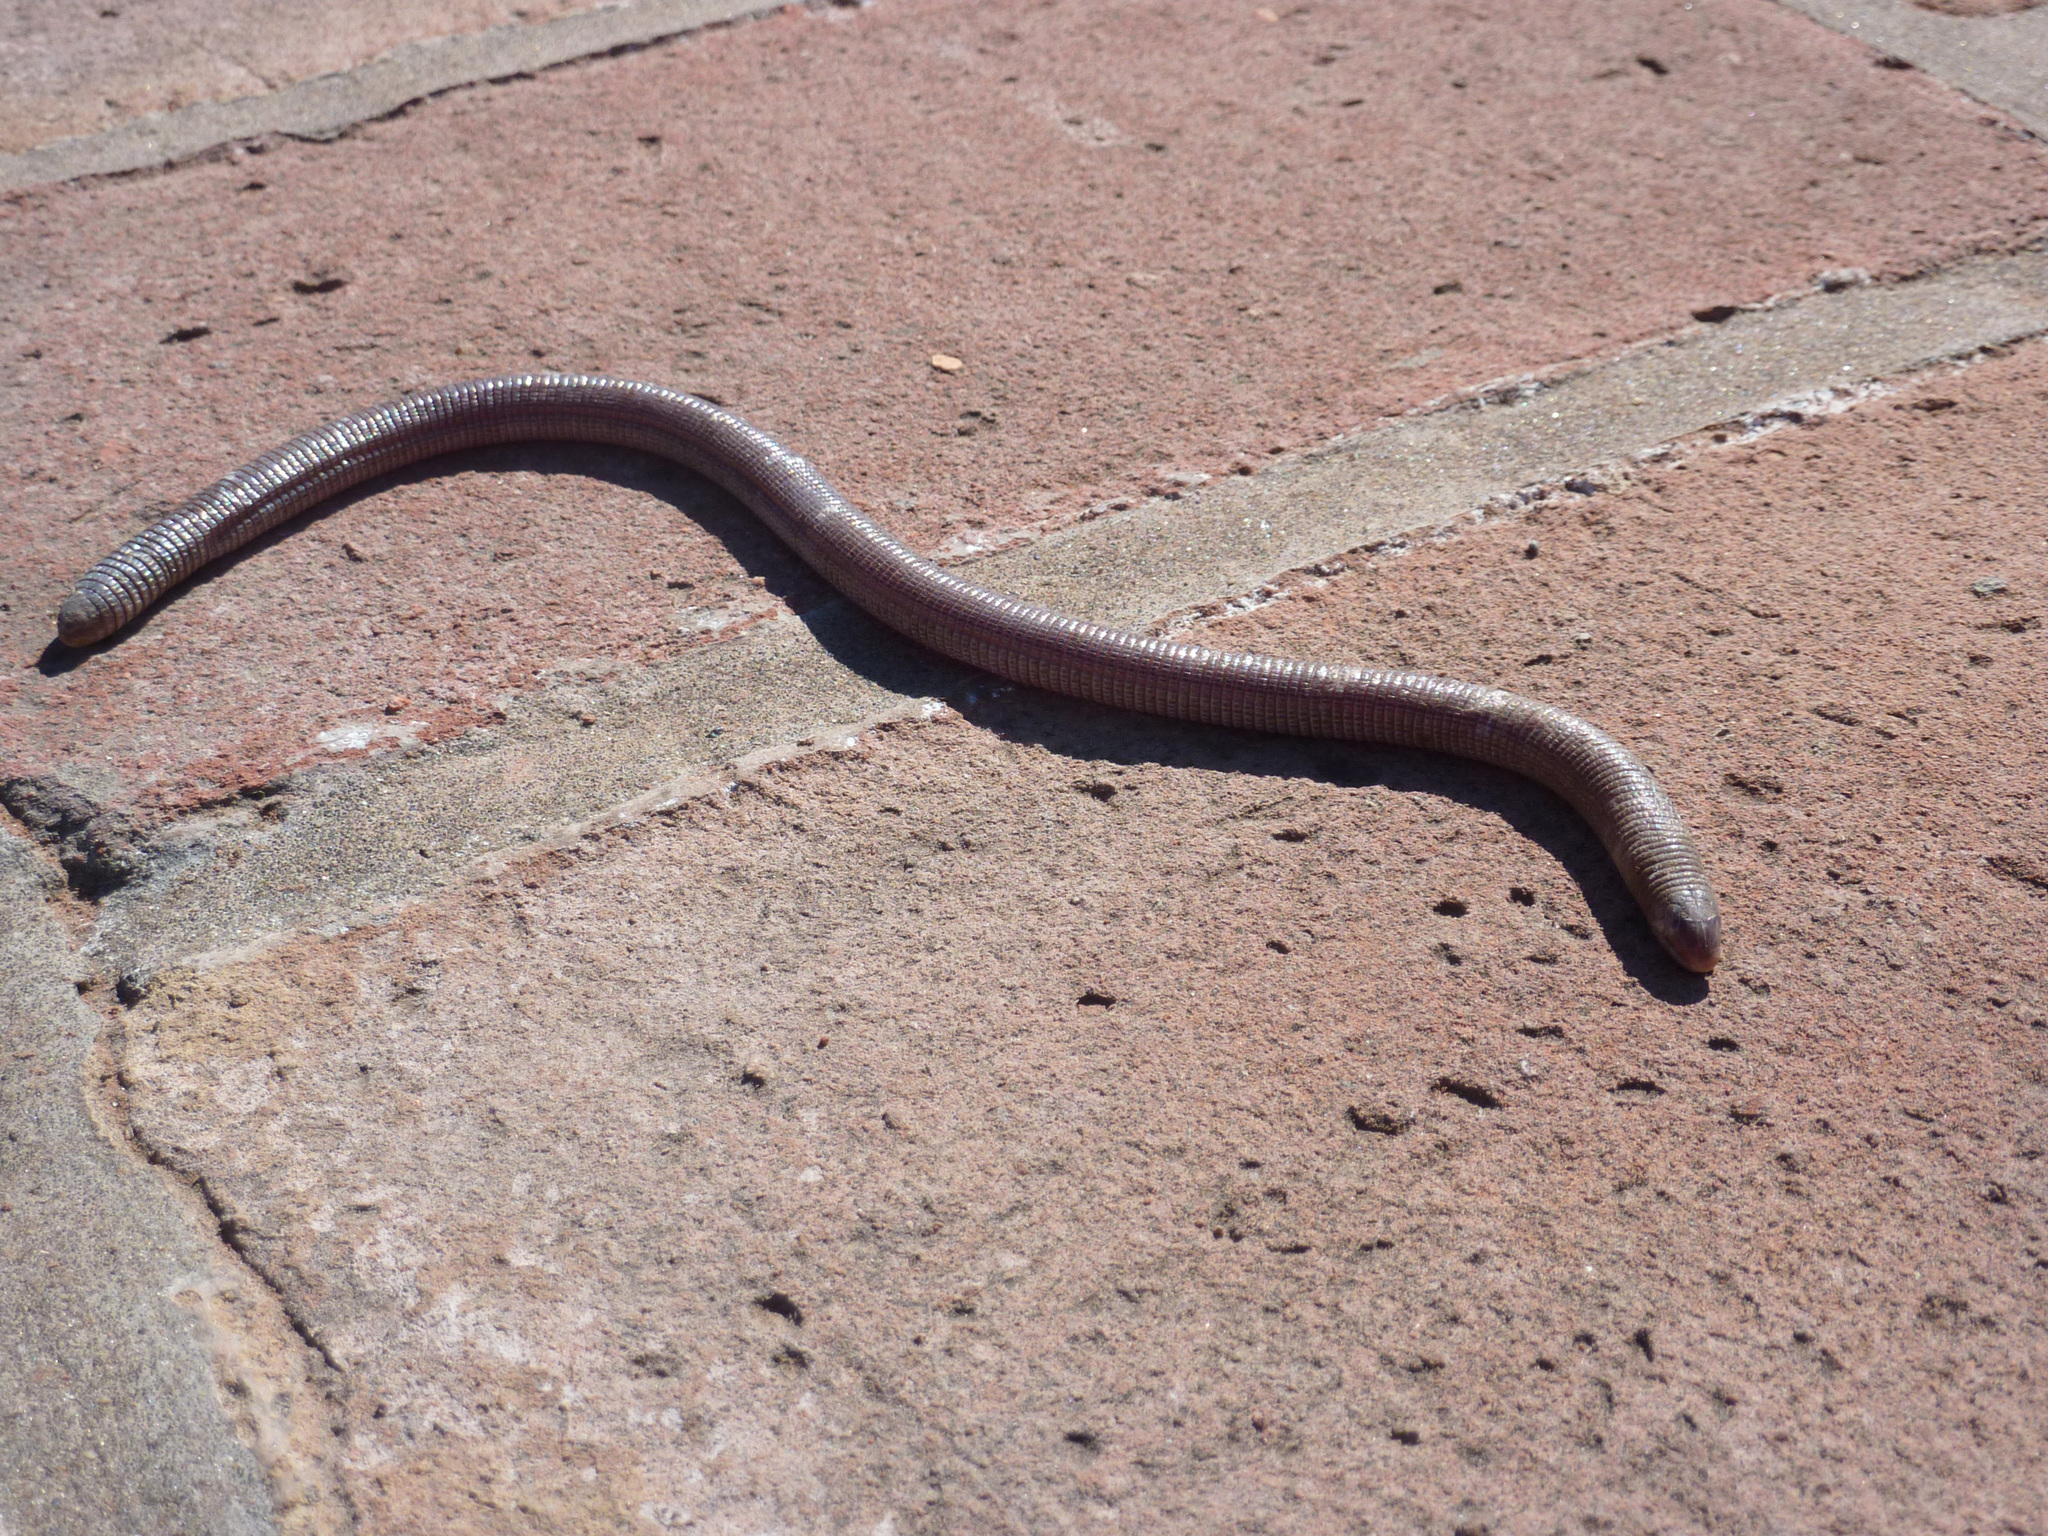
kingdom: Animalia
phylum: Chordata
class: Squamata
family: Amphisbaenidae
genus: Amphisbaena
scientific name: Amphisbaena darwinii
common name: Darwin's ringed worm lizard
